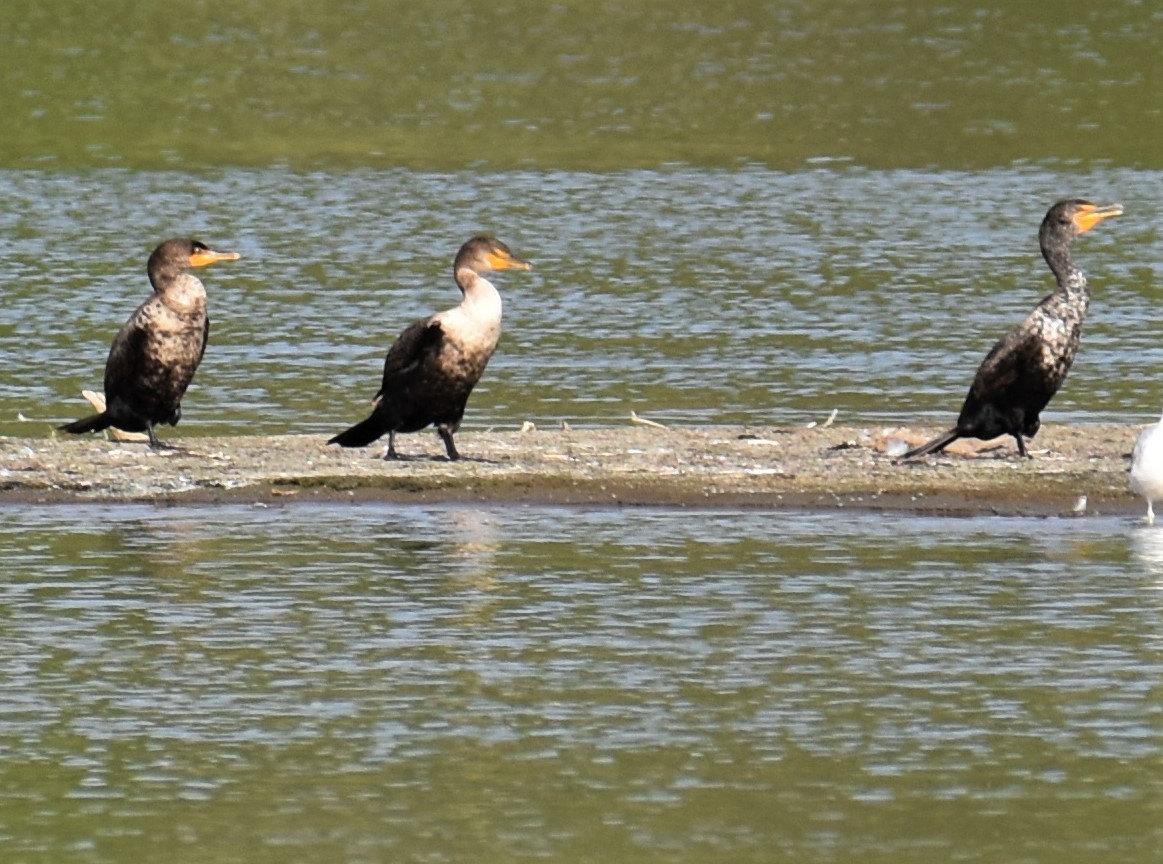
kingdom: Animalia
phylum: Chordata
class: Aves
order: Suliformes
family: Phalacrocoracidae
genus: Phalacrocorax
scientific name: Phalacrocorax auritus
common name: Double-crested cormorant
